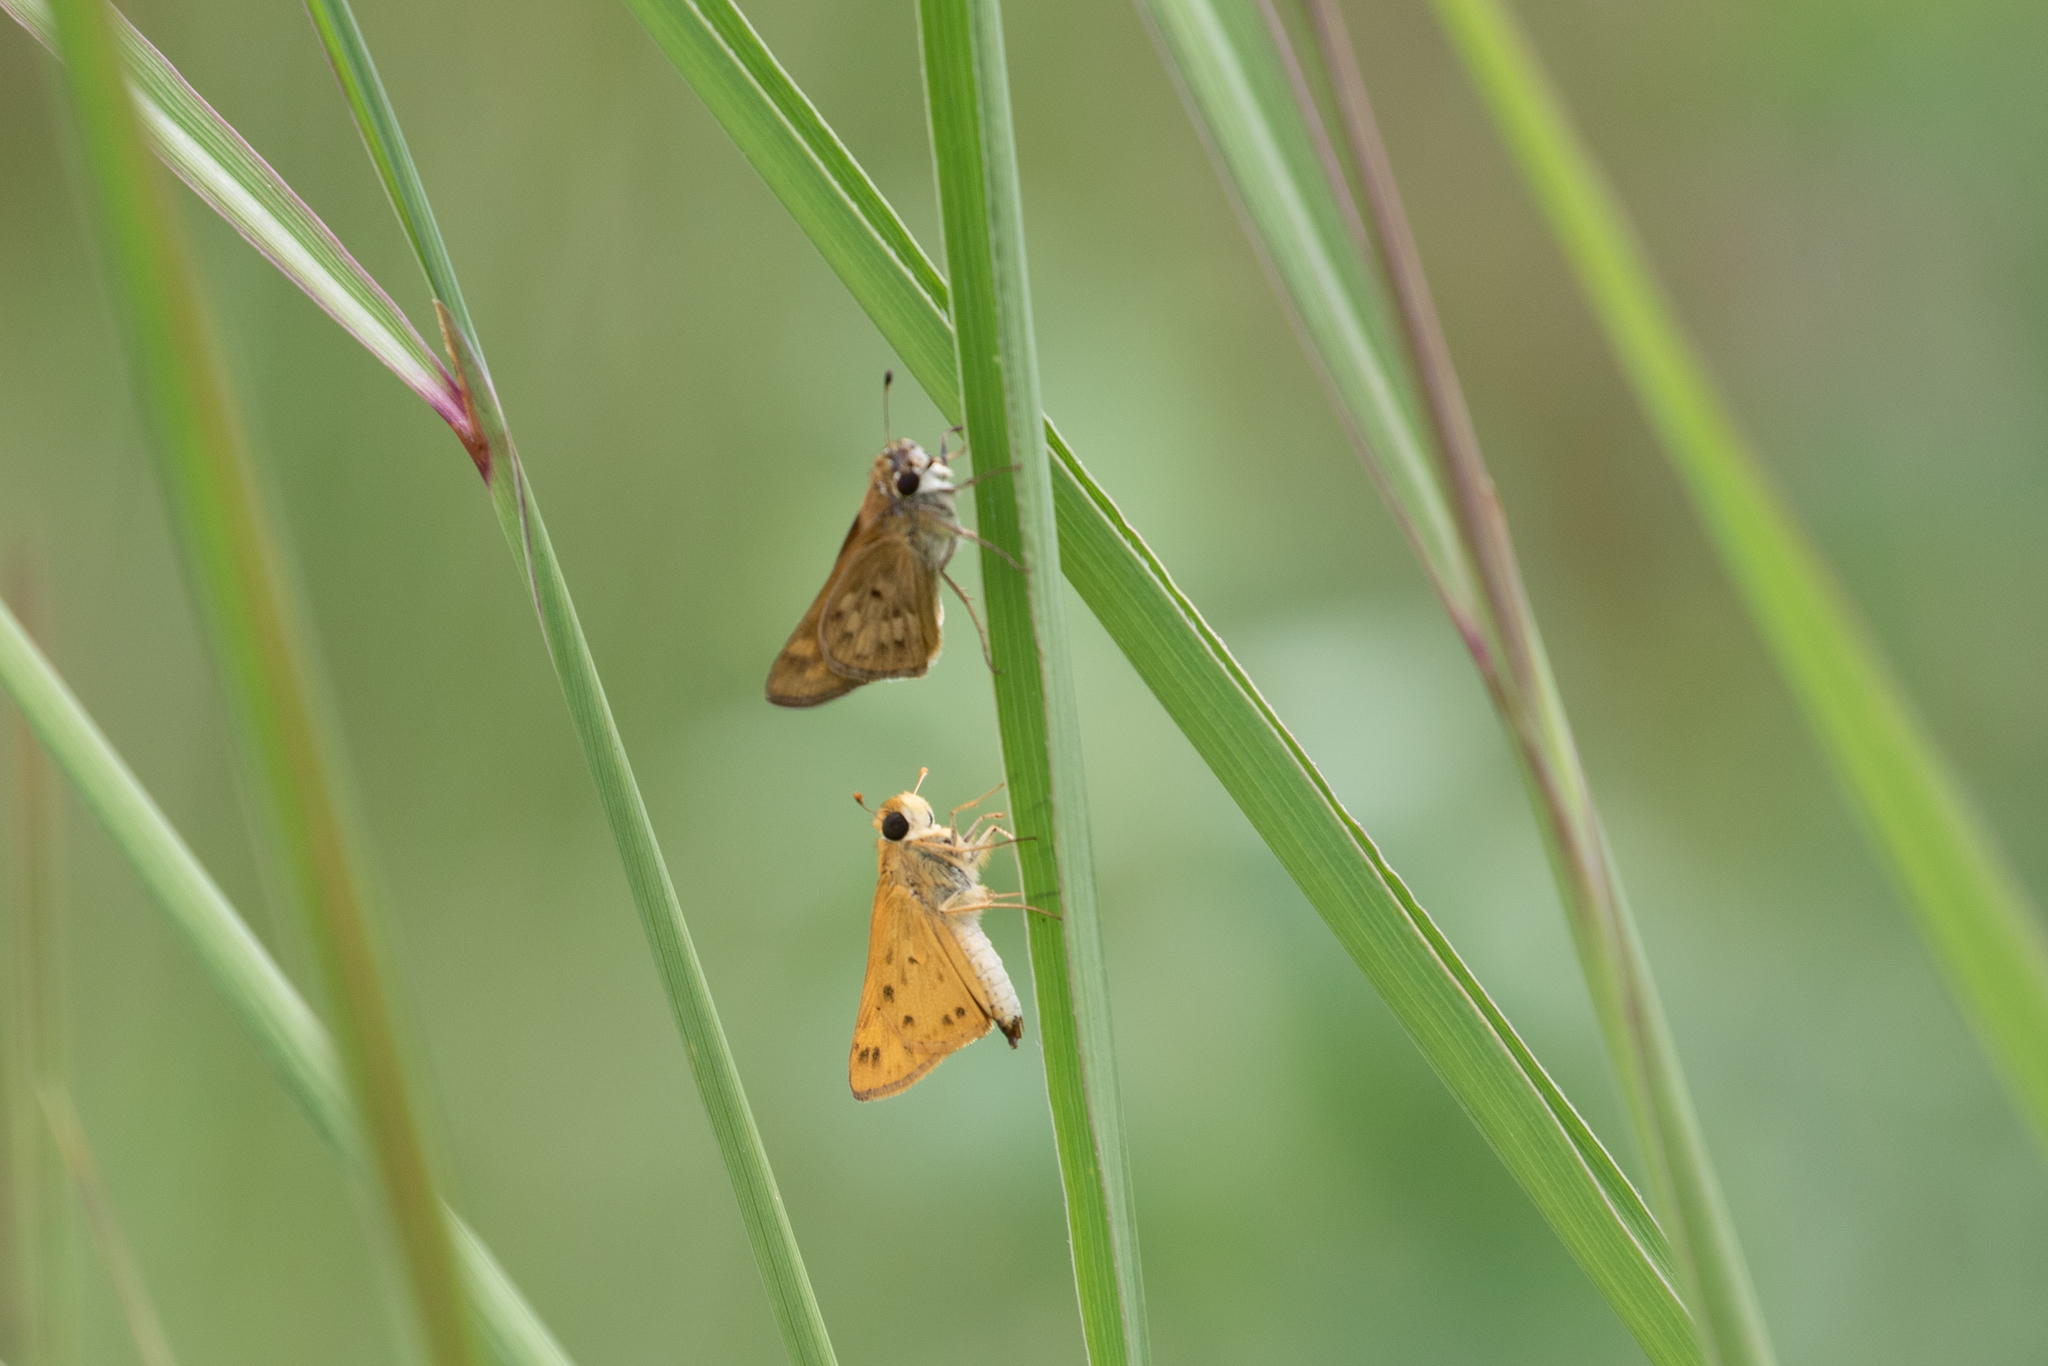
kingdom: Animalia
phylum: Arthropoda
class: Insecta
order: Lepidoptera
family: Hesperiidae
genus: Hylephila
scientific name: Hylephila phyleus
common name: Fiery skipper
